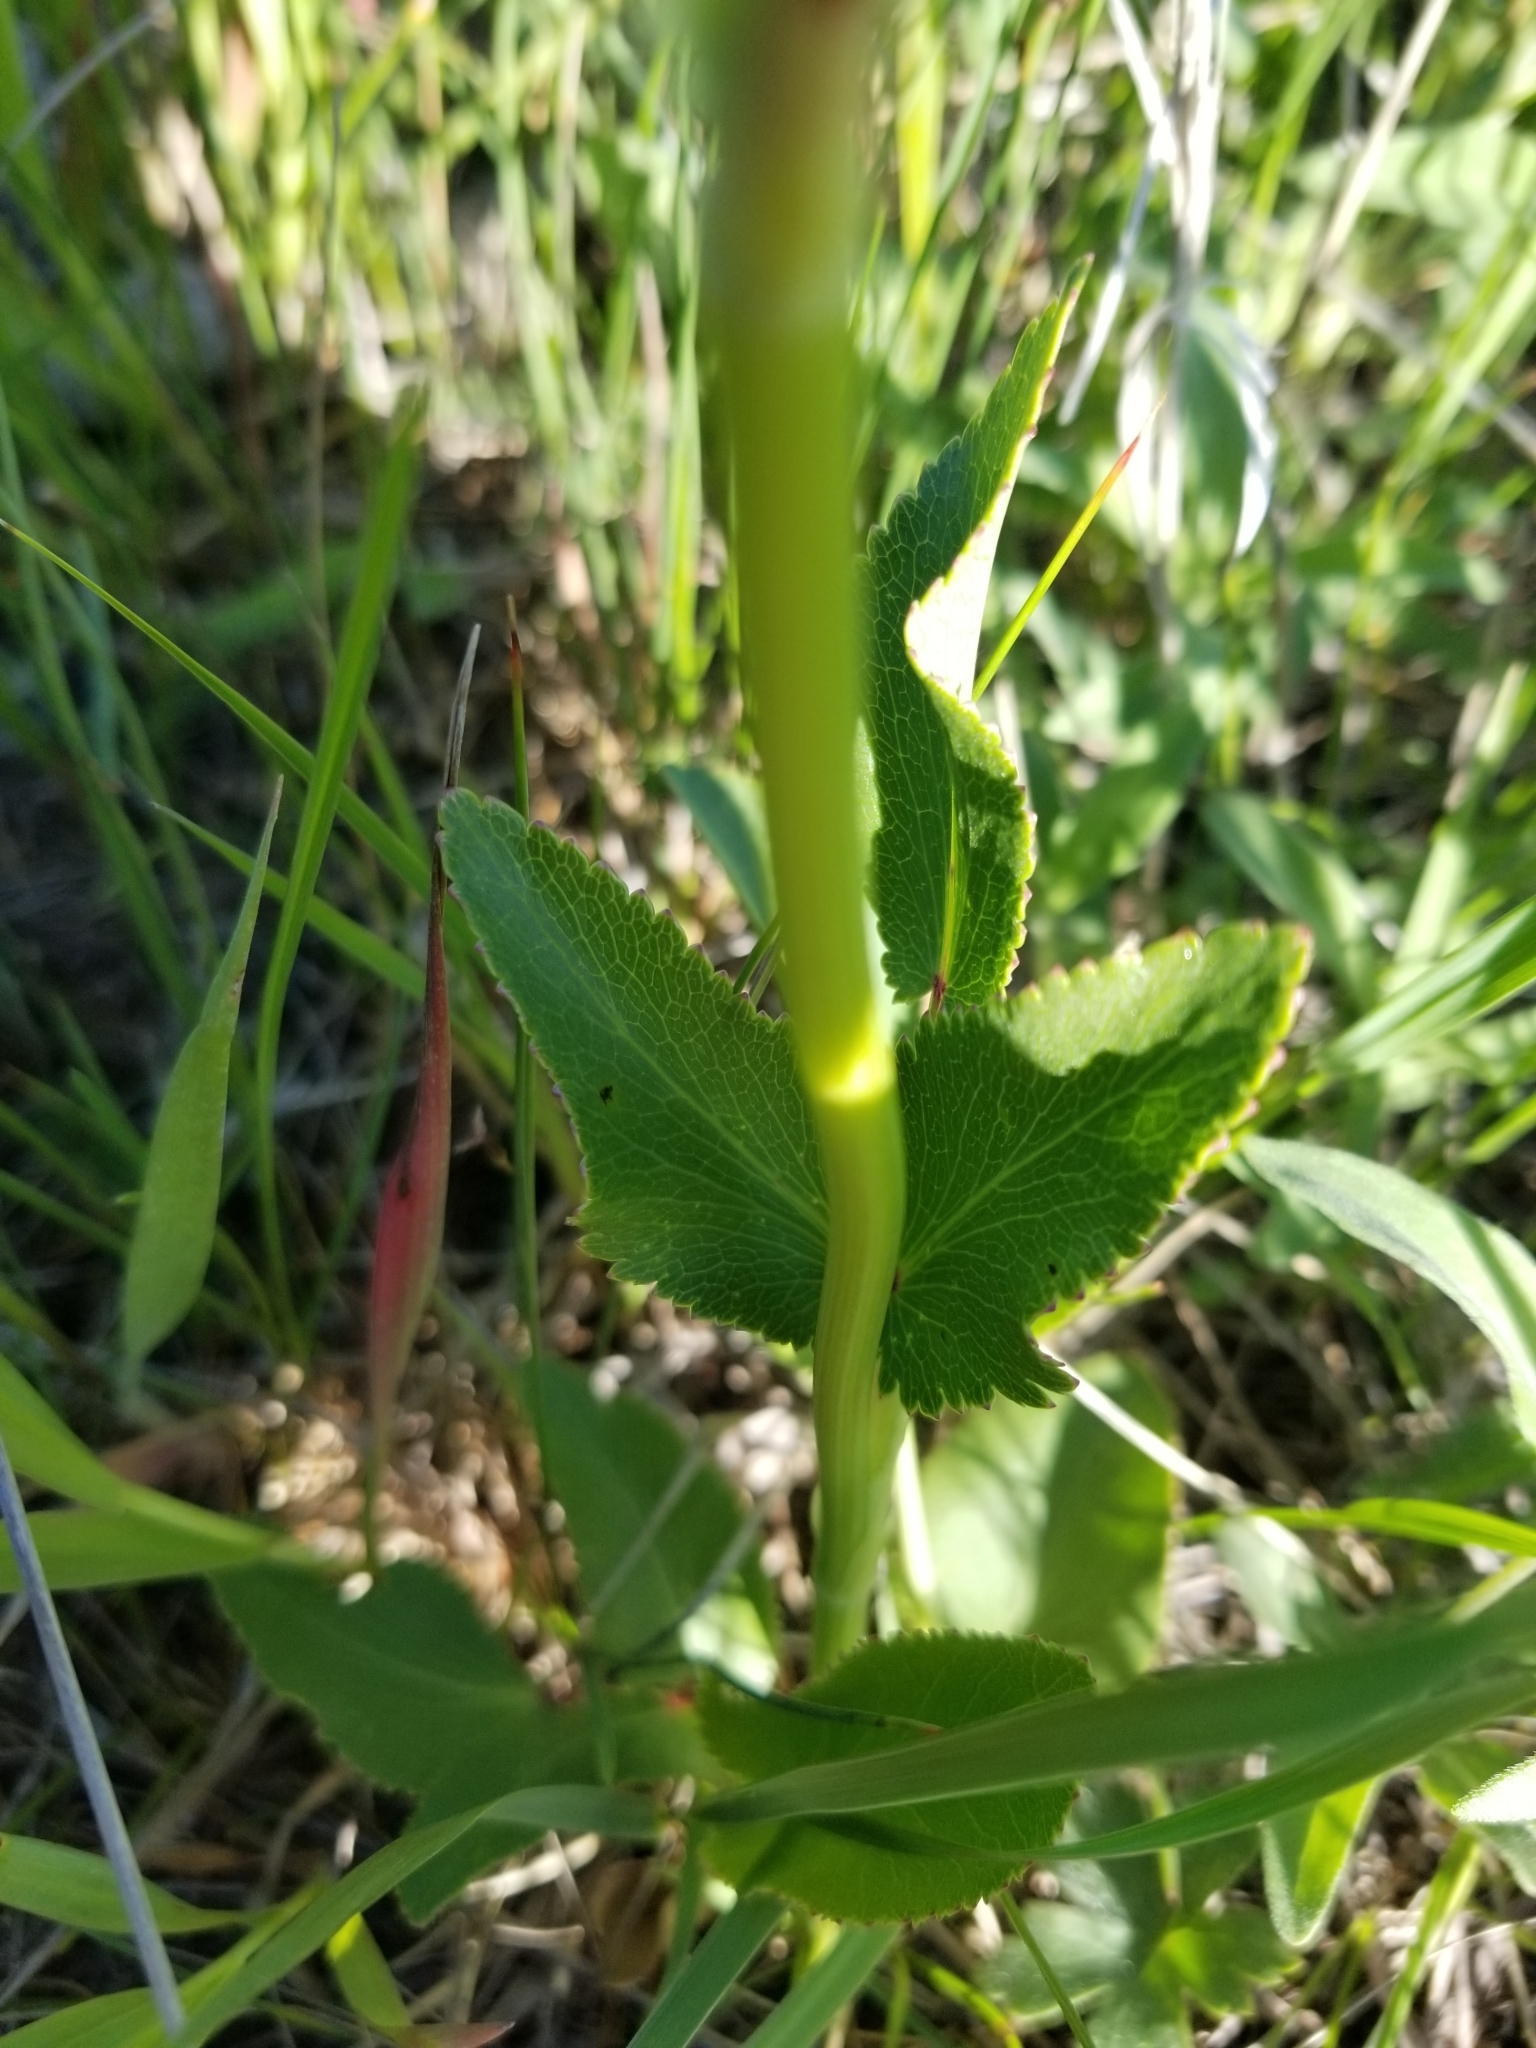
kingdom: Plantae
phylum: Tracheophyta
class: Magnoliopsida
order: Apiales
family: Apiaceae
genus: Zizia
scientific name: Zizia aurea
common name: Golden alexanders
